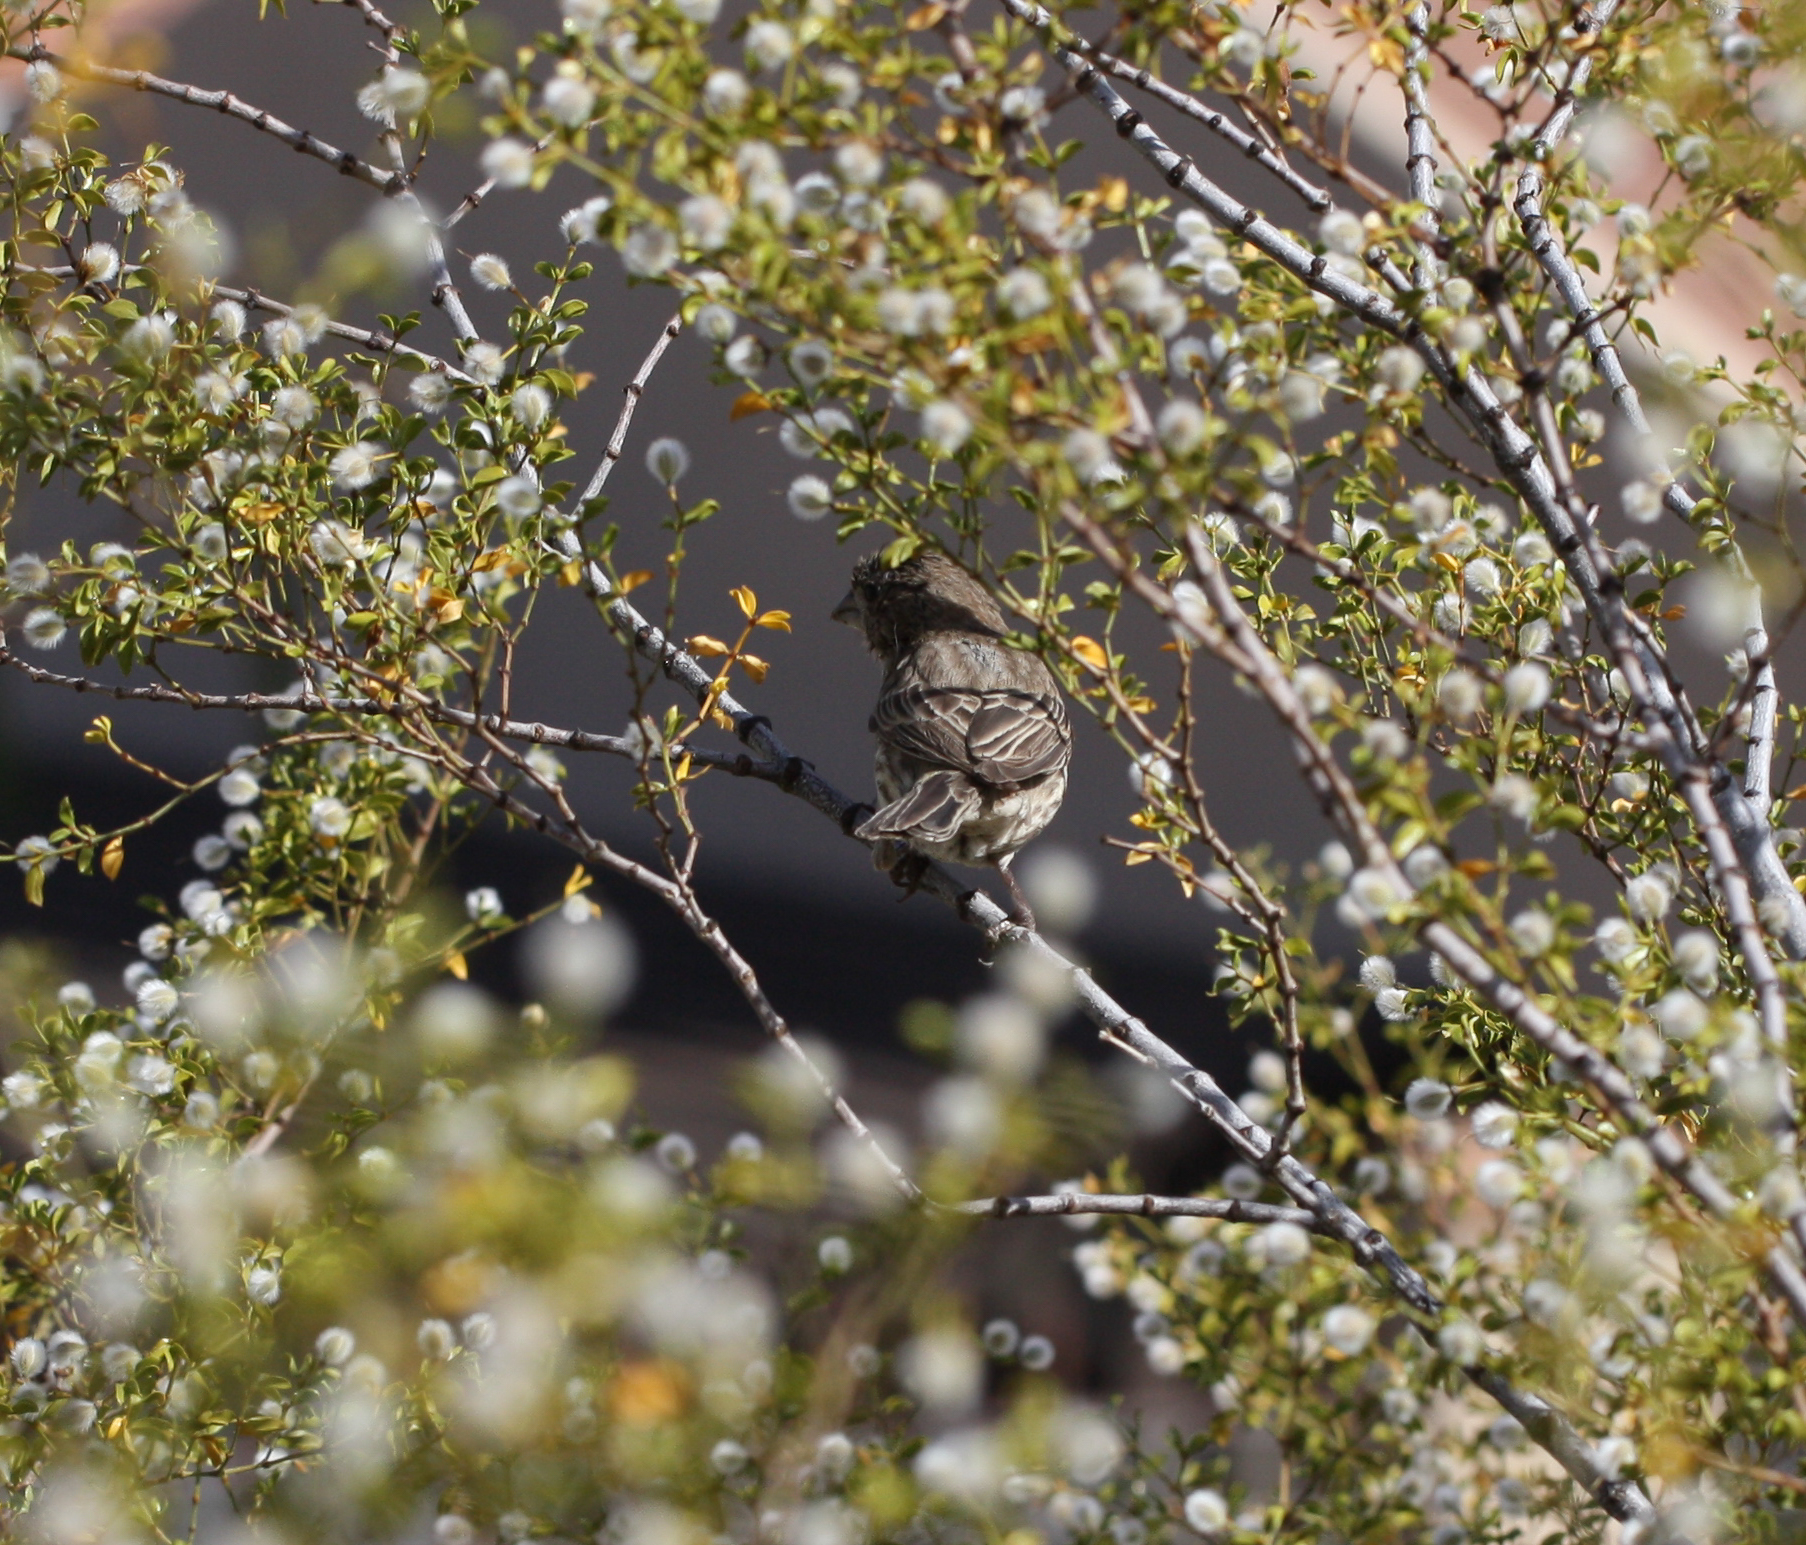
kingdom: Animalia
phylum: Chordata
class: Aves
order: Passeriformes
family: Fringillidae
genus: Haemorhous
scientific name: Haemorhous mexicanus
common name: House finch
